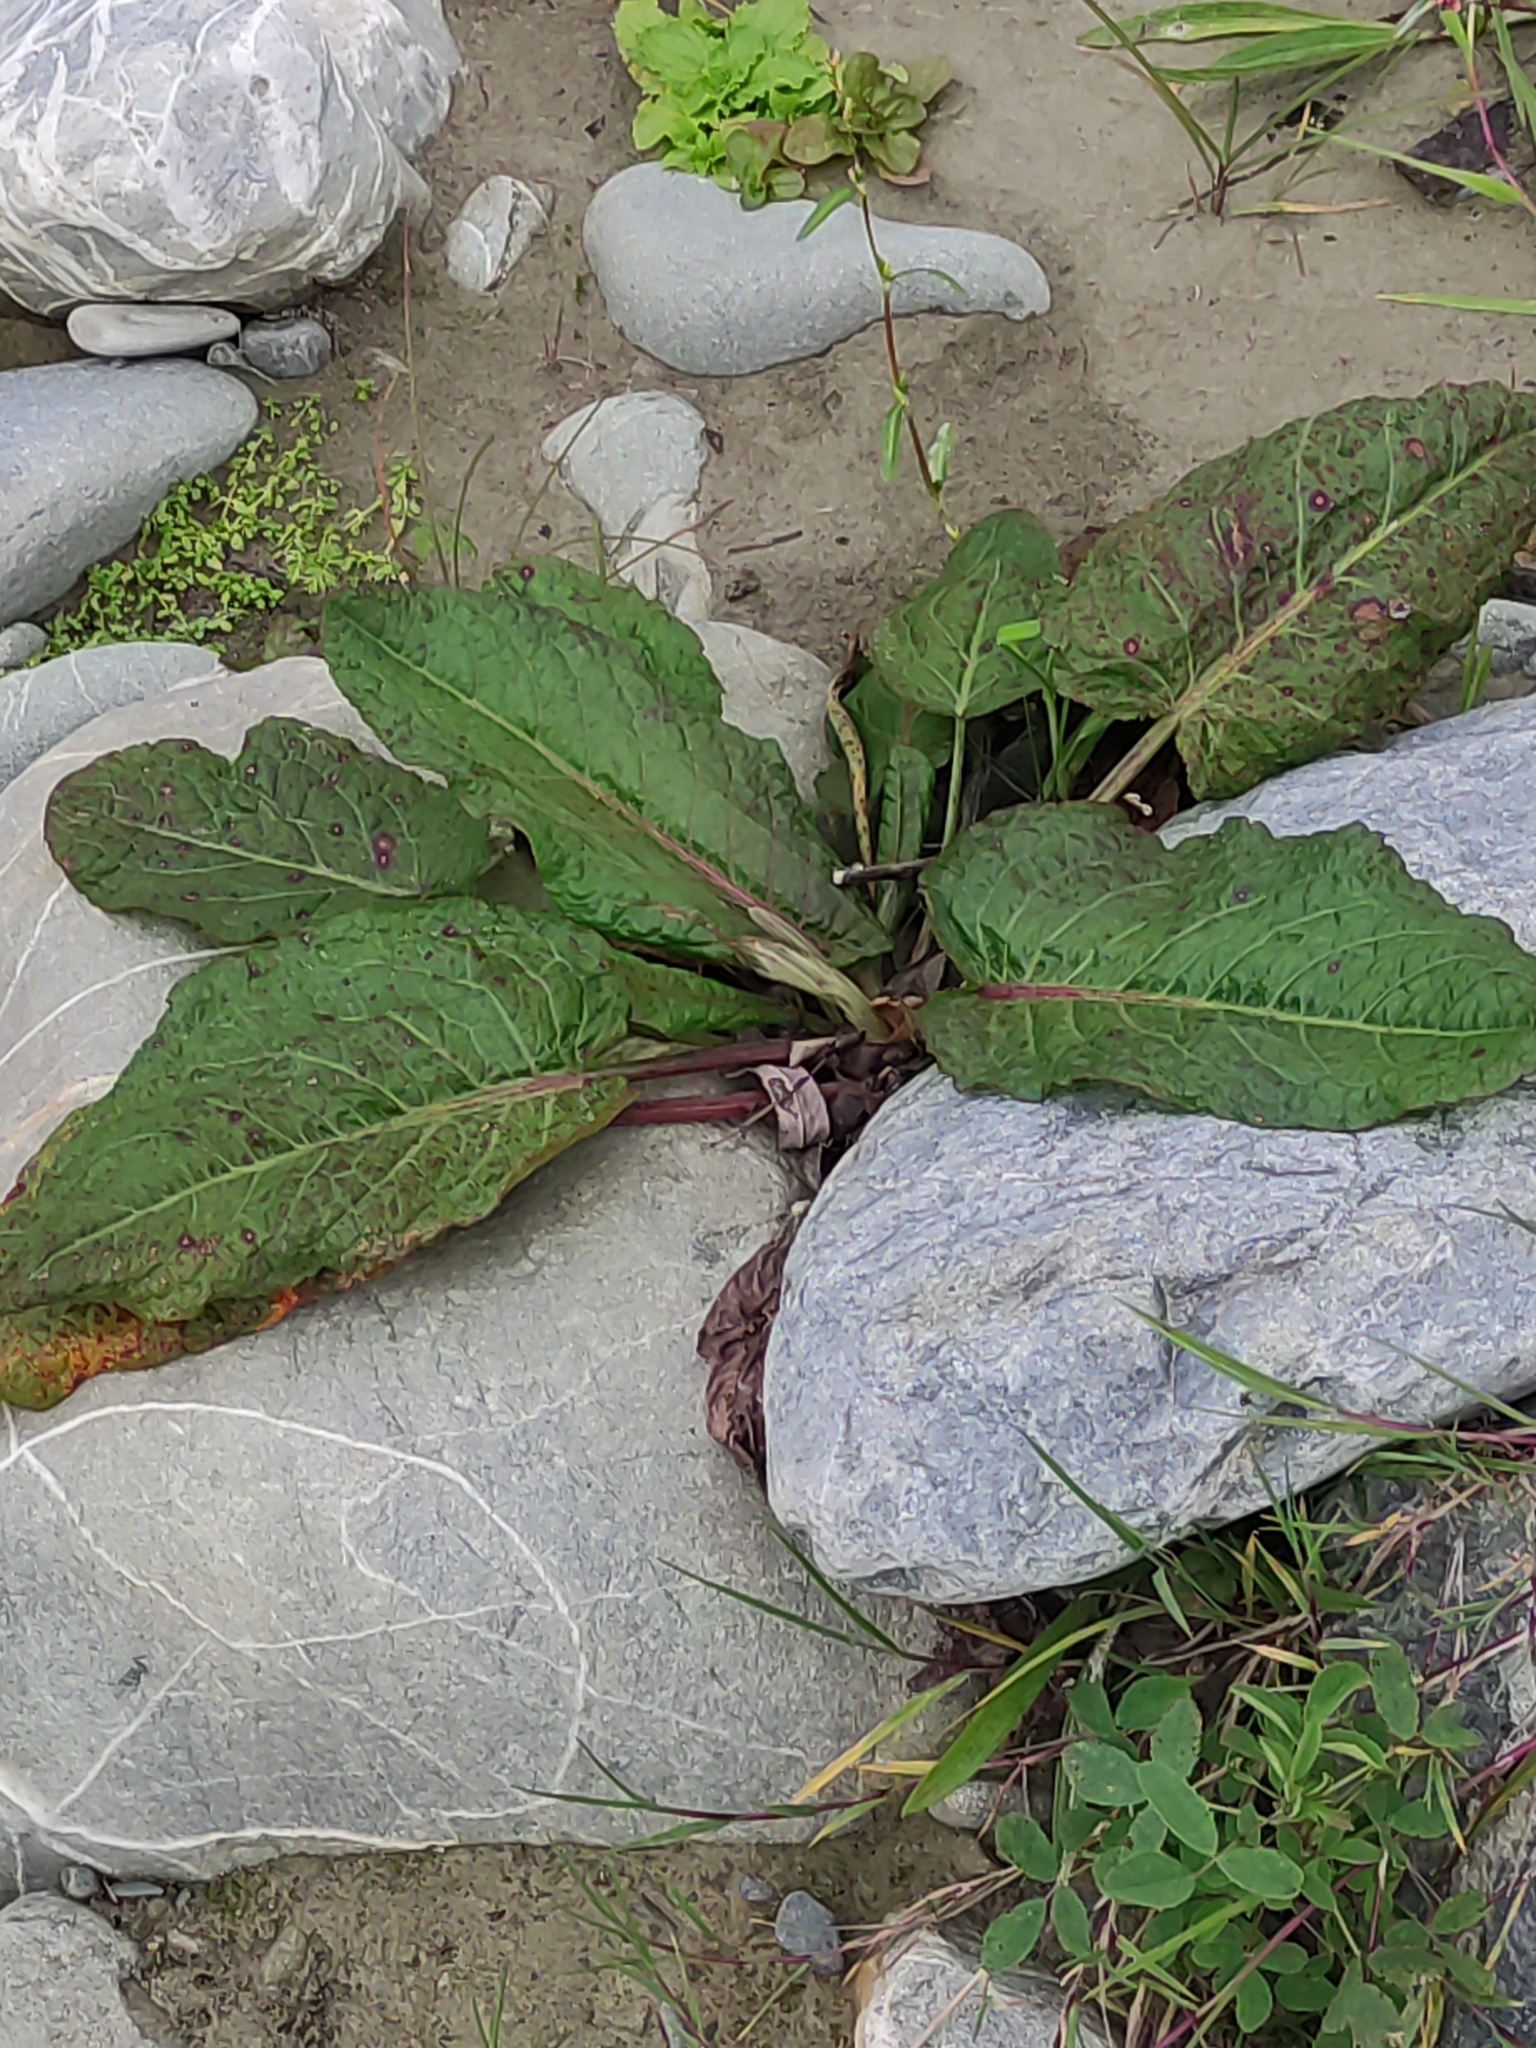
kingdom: Plantae
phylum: Tracheophyta
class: Magnoliopsida
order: Caryophyllales
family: Polygonaceae
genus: Rumex
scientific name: Rumex obtusifolius
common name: Bitter dock
